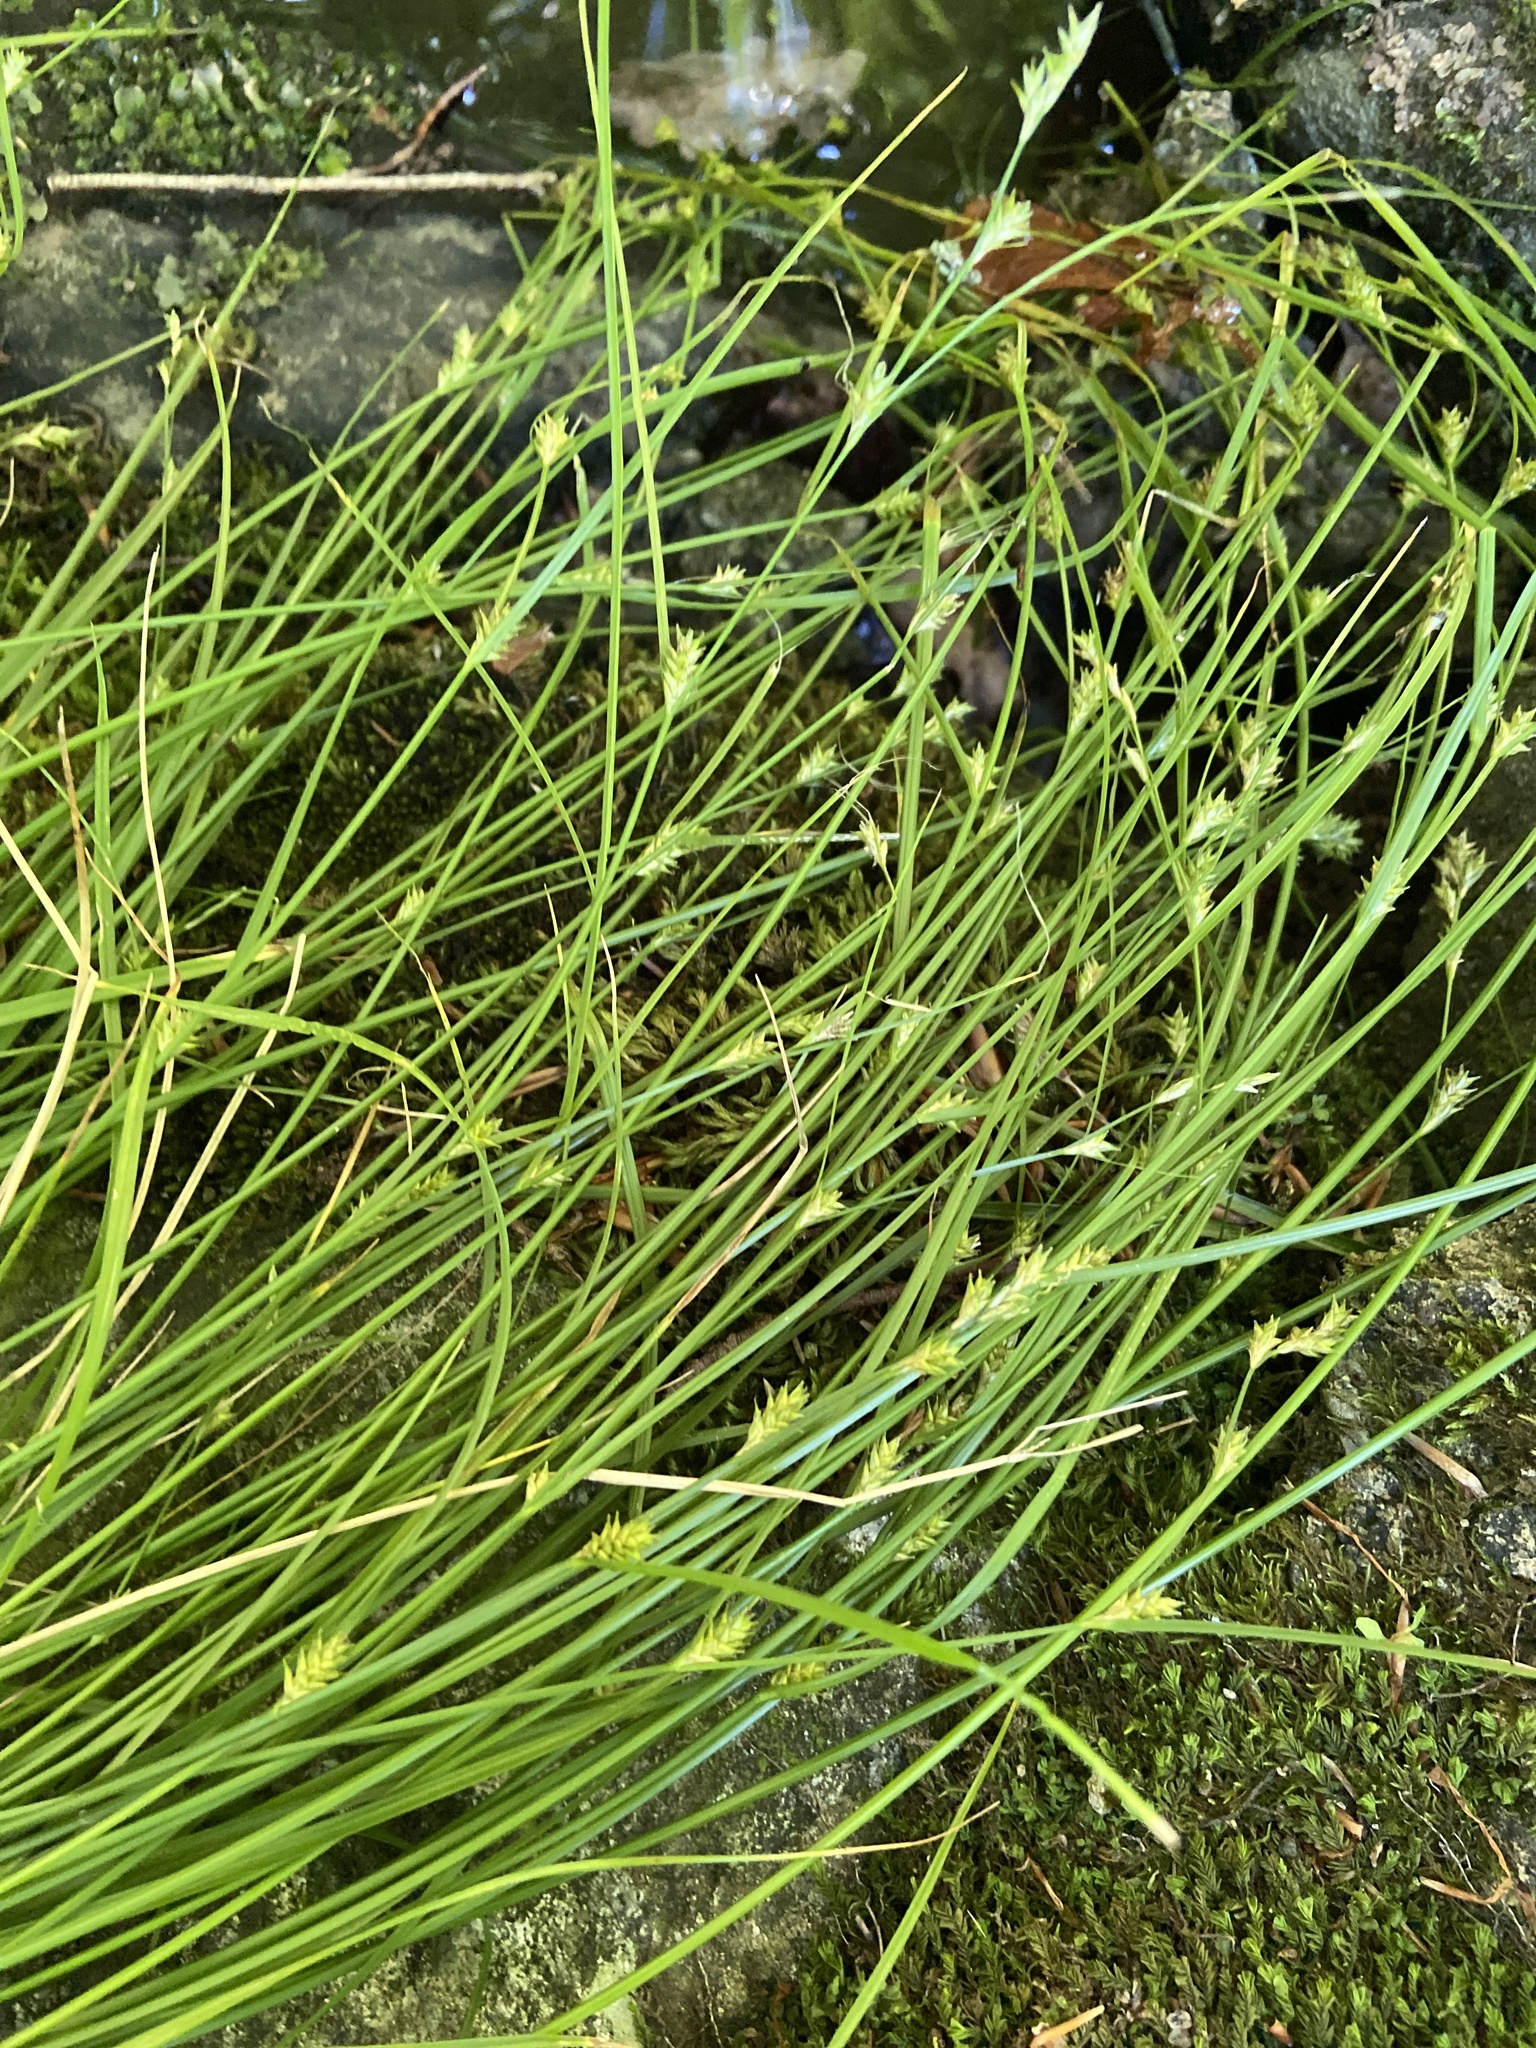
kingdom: Plantae
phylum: Tracheophyta
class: Liliopsida
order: Poales
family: Cyperaceae
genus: Carex
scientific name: Carex remota
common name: Remote sedge
